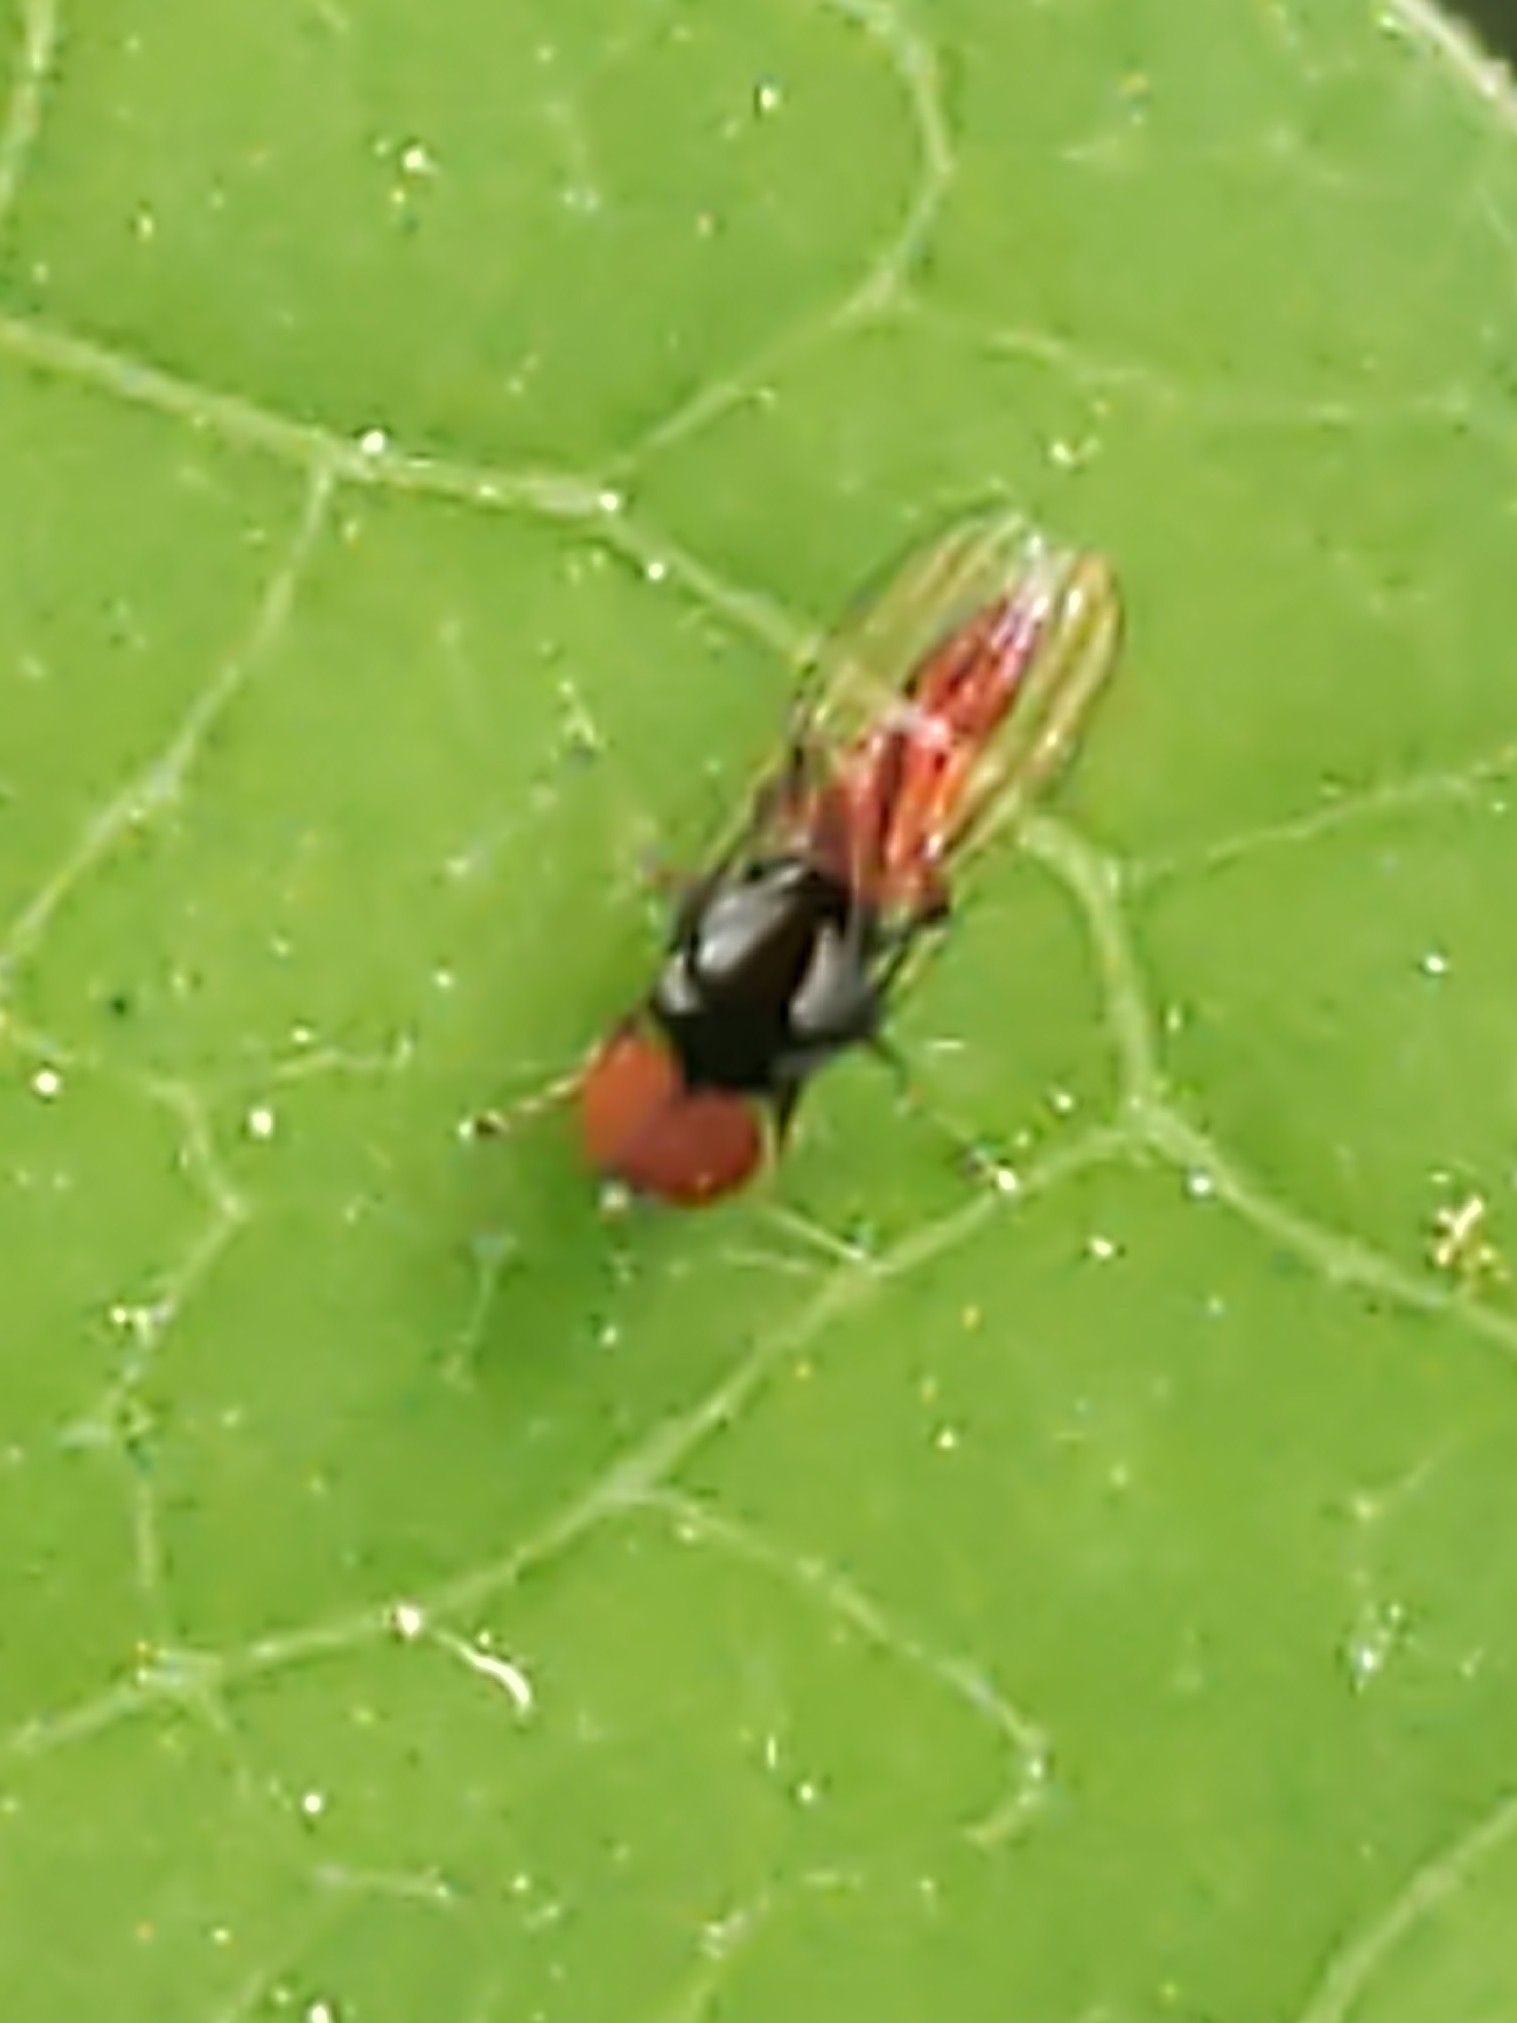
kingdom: Animalia
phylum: Arthropoda
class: Insecta
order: Diptera
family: Platypezidae
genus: Bertamyia
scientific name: Bertamyia notata
